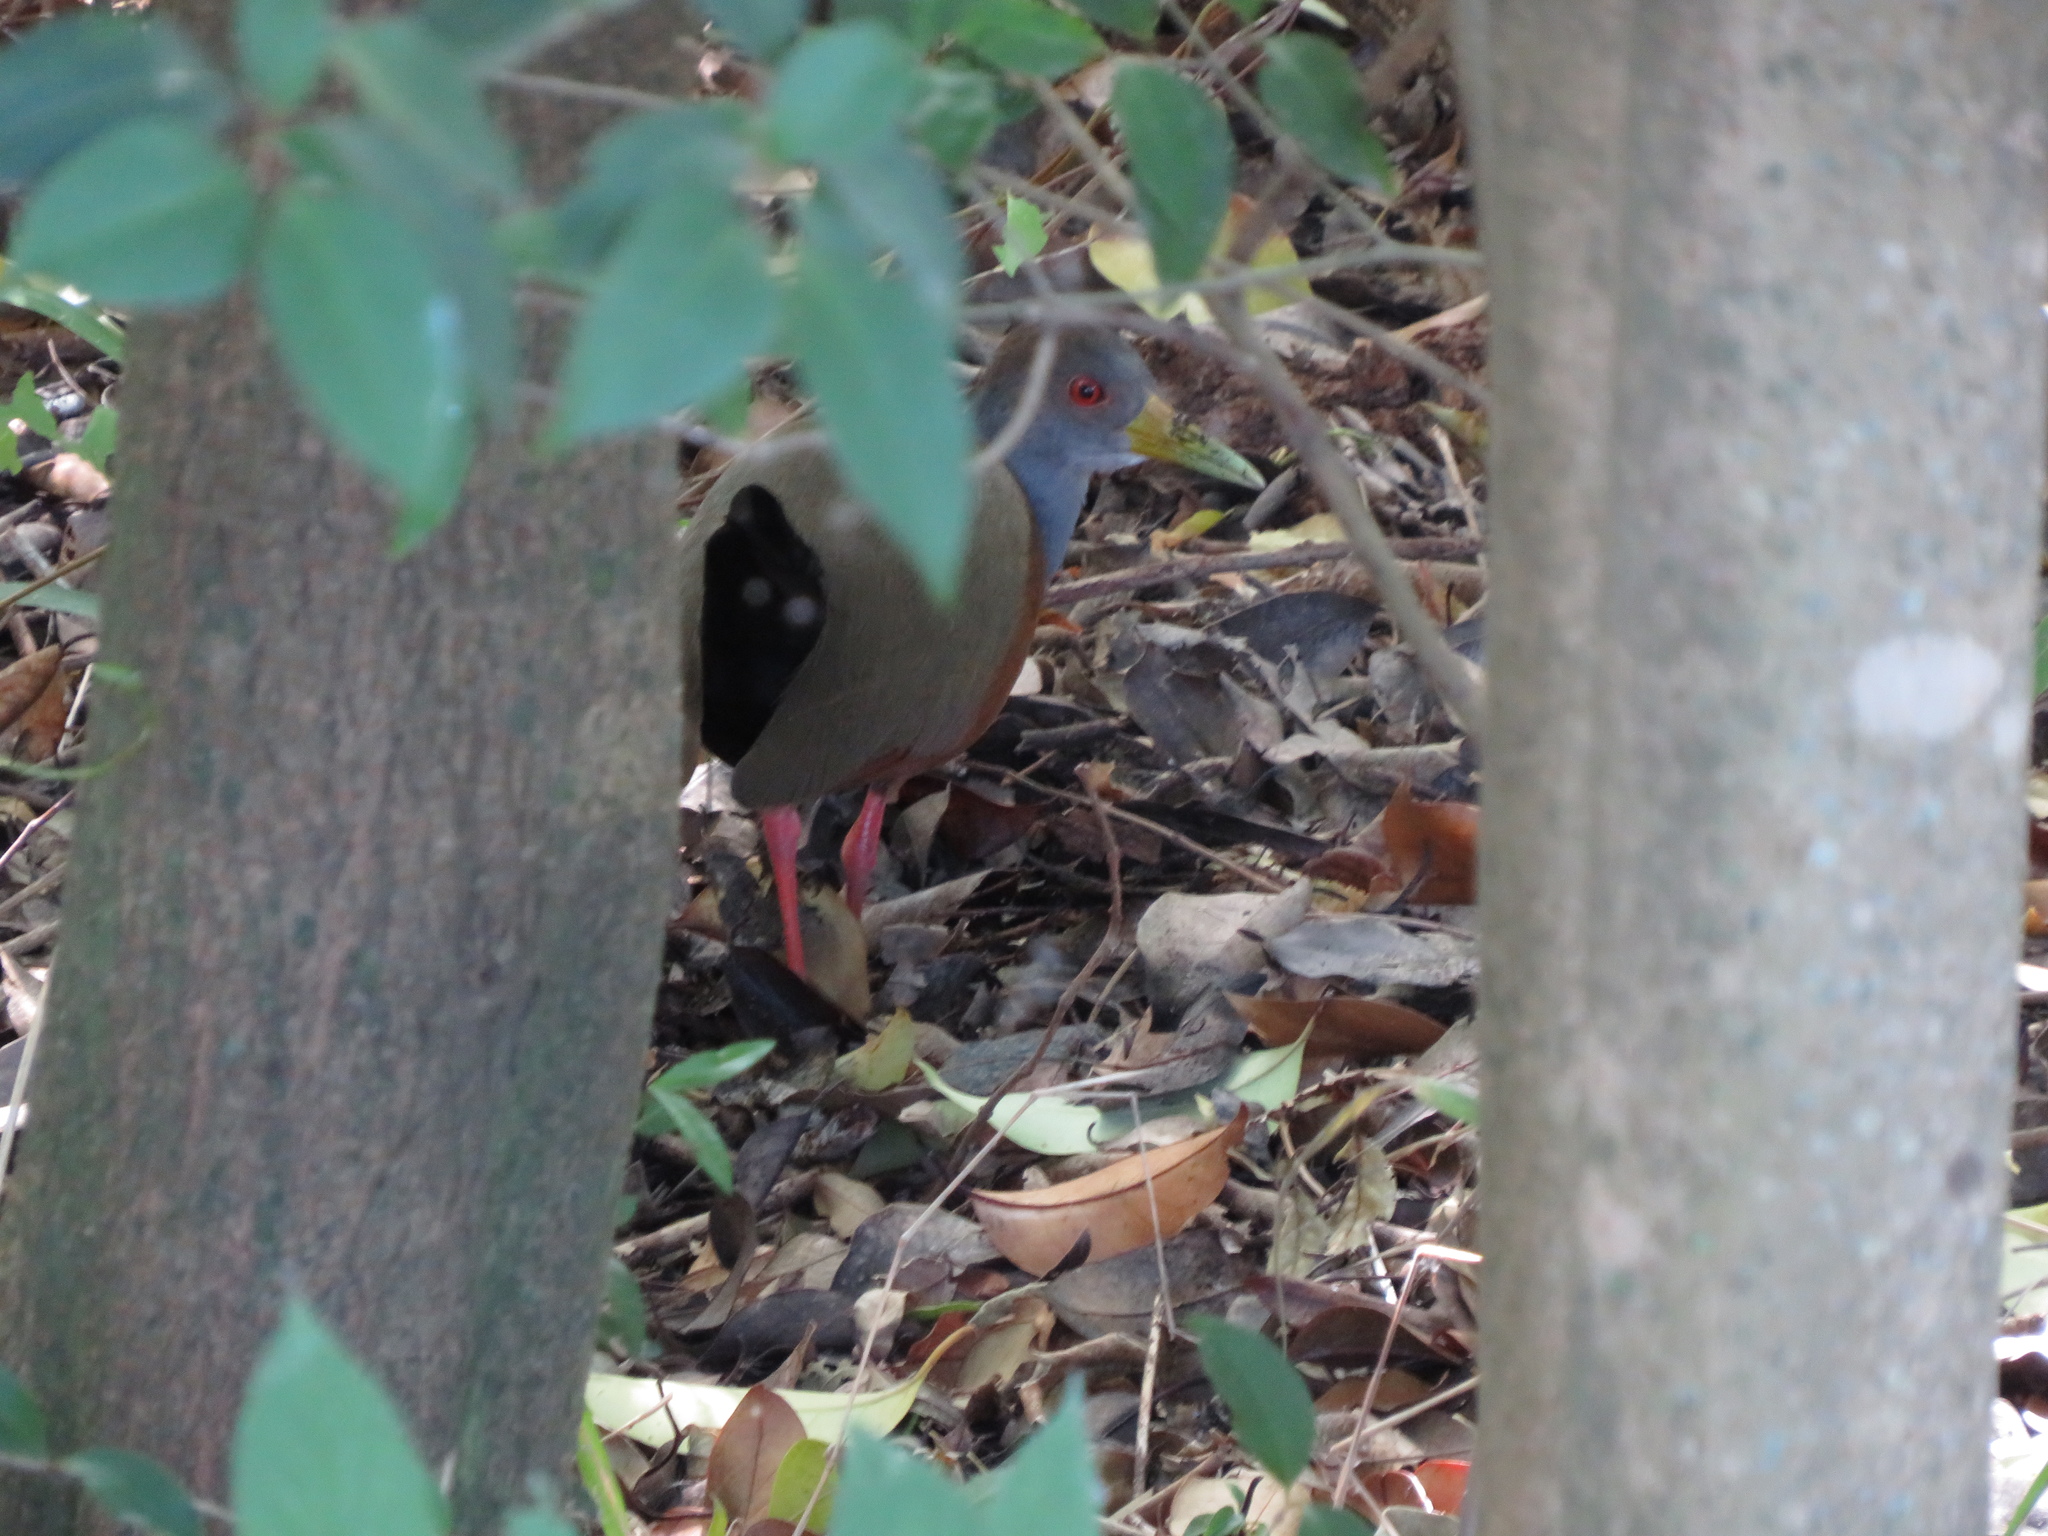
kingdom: Animalia
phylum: Chordata
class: Aves
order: Gruiformes
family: Rallidae
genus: Aramides
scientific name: Aramides cajanea
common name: Gray-necked wood-rail
